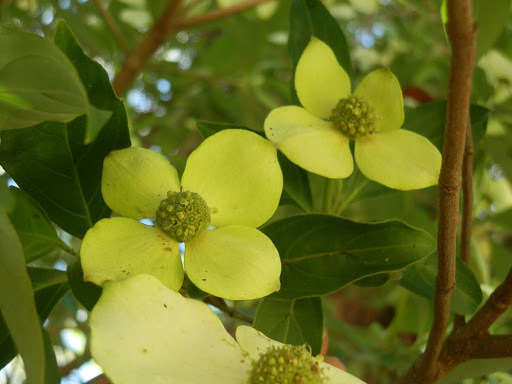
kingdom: Plantae
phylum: Tracheophyta
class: Magnoliopsida
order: Cornales
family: Cornaceae
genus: Cornus
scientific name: Cornus capitata
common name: Bentham's cornel
